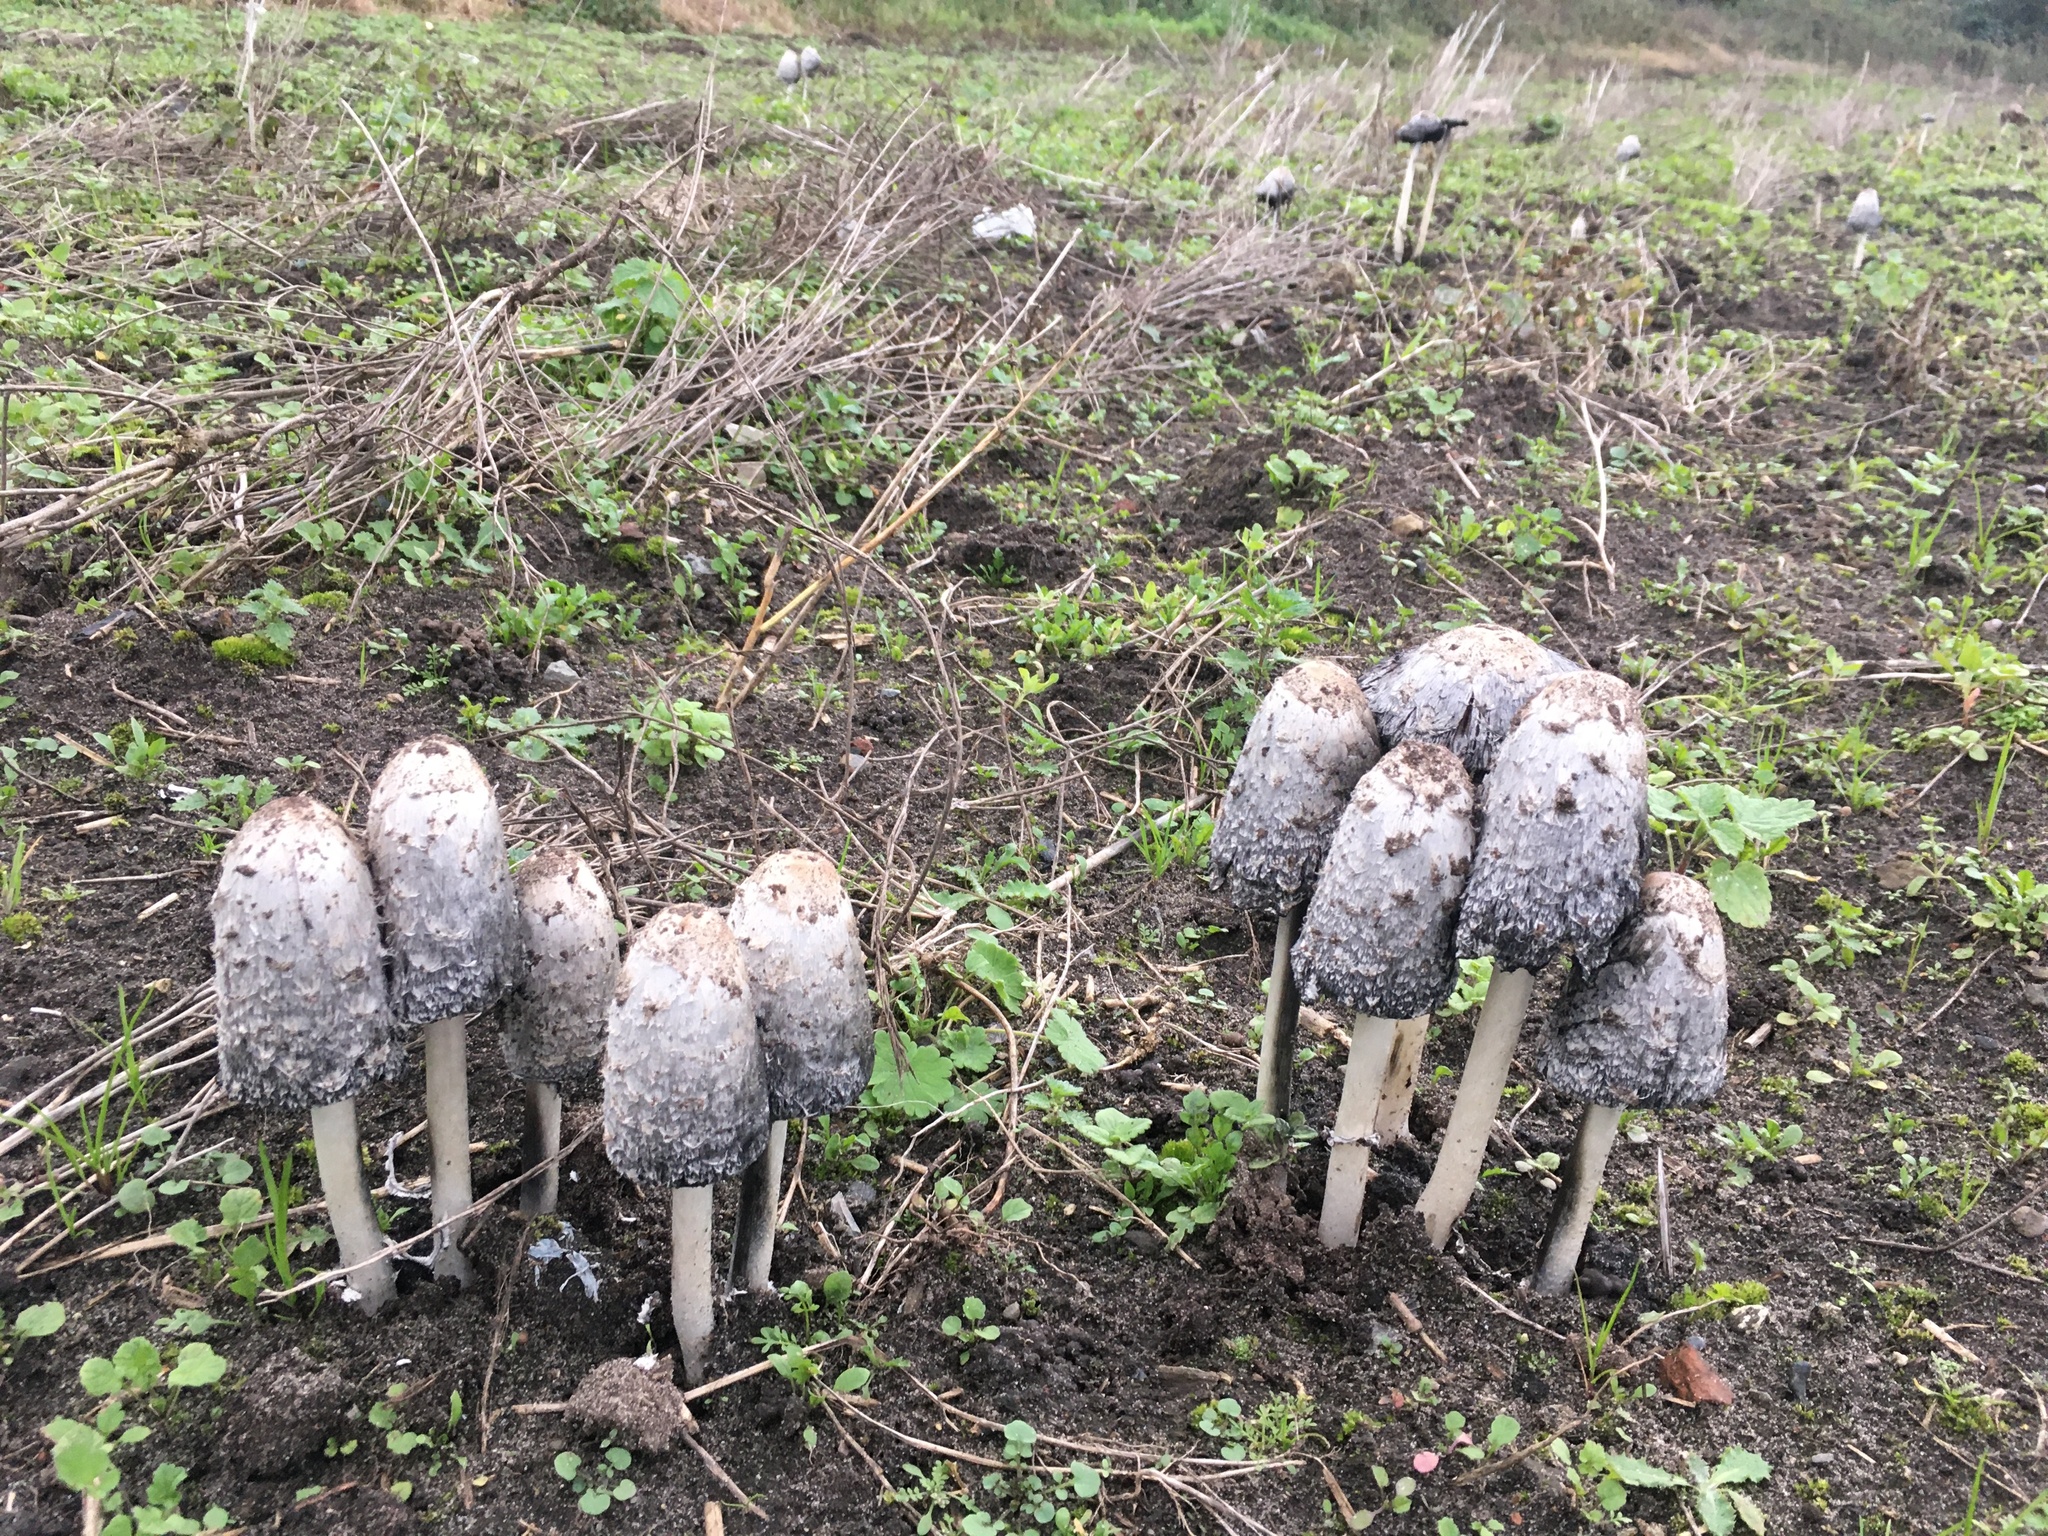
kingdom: Fungi
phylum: Basidiomycota
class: Agaricomycetes
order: Agaricales
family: Agaricaceae
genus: Coprinus
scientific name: Coprinus comatus
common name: Lawyer's wig
